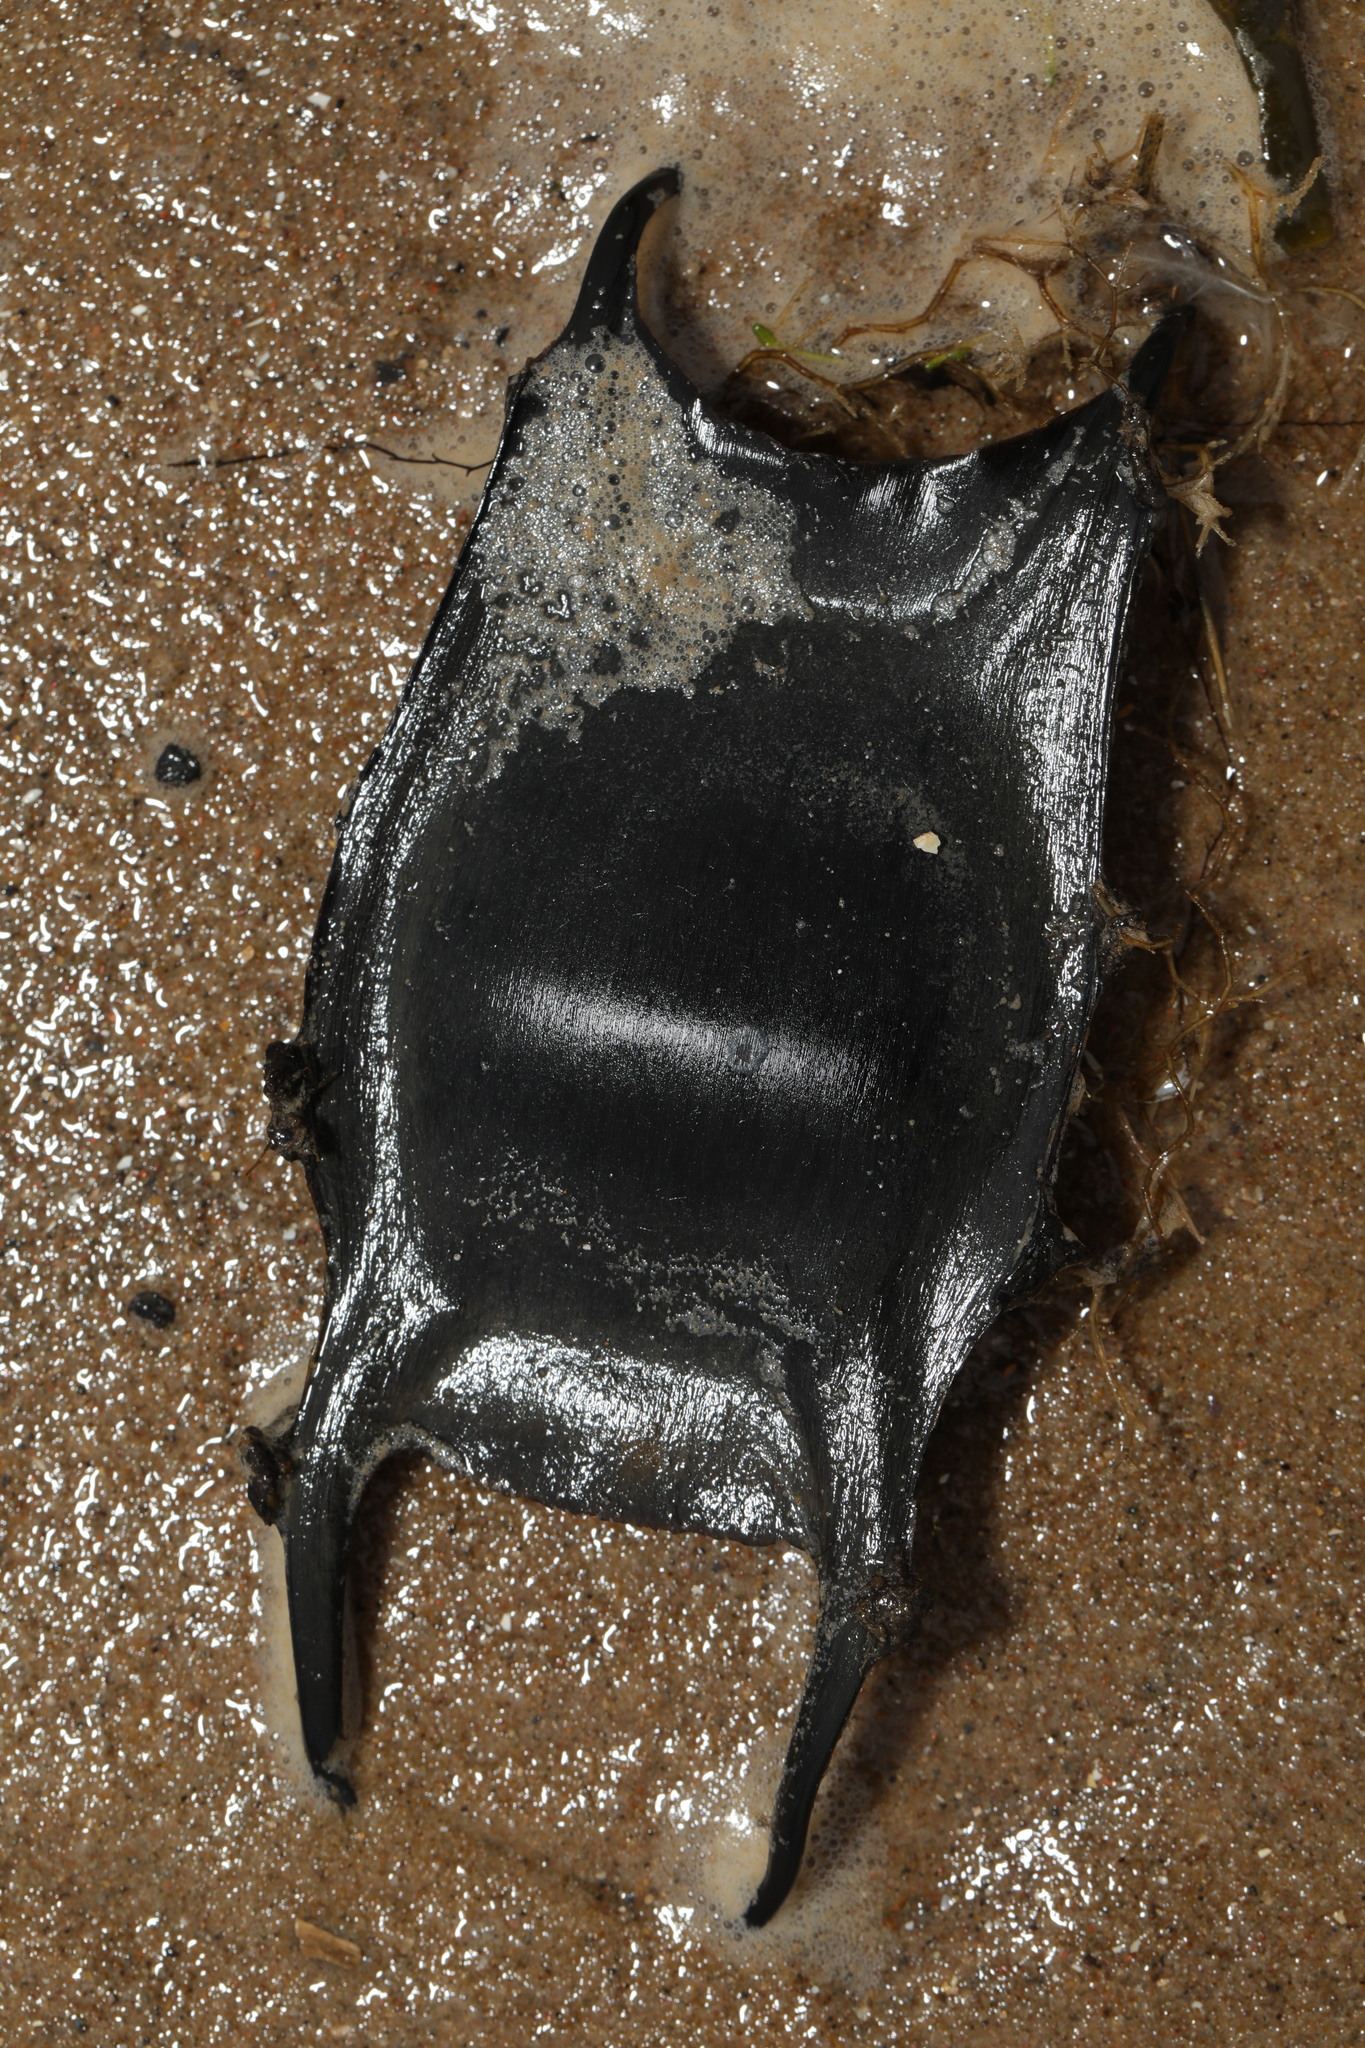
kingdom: Animalia
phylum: Chordata
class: Elasmobranchii
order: Rajiformes
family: Rajidae
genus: Raja
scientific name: Raja clavata
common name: Thornback ray
